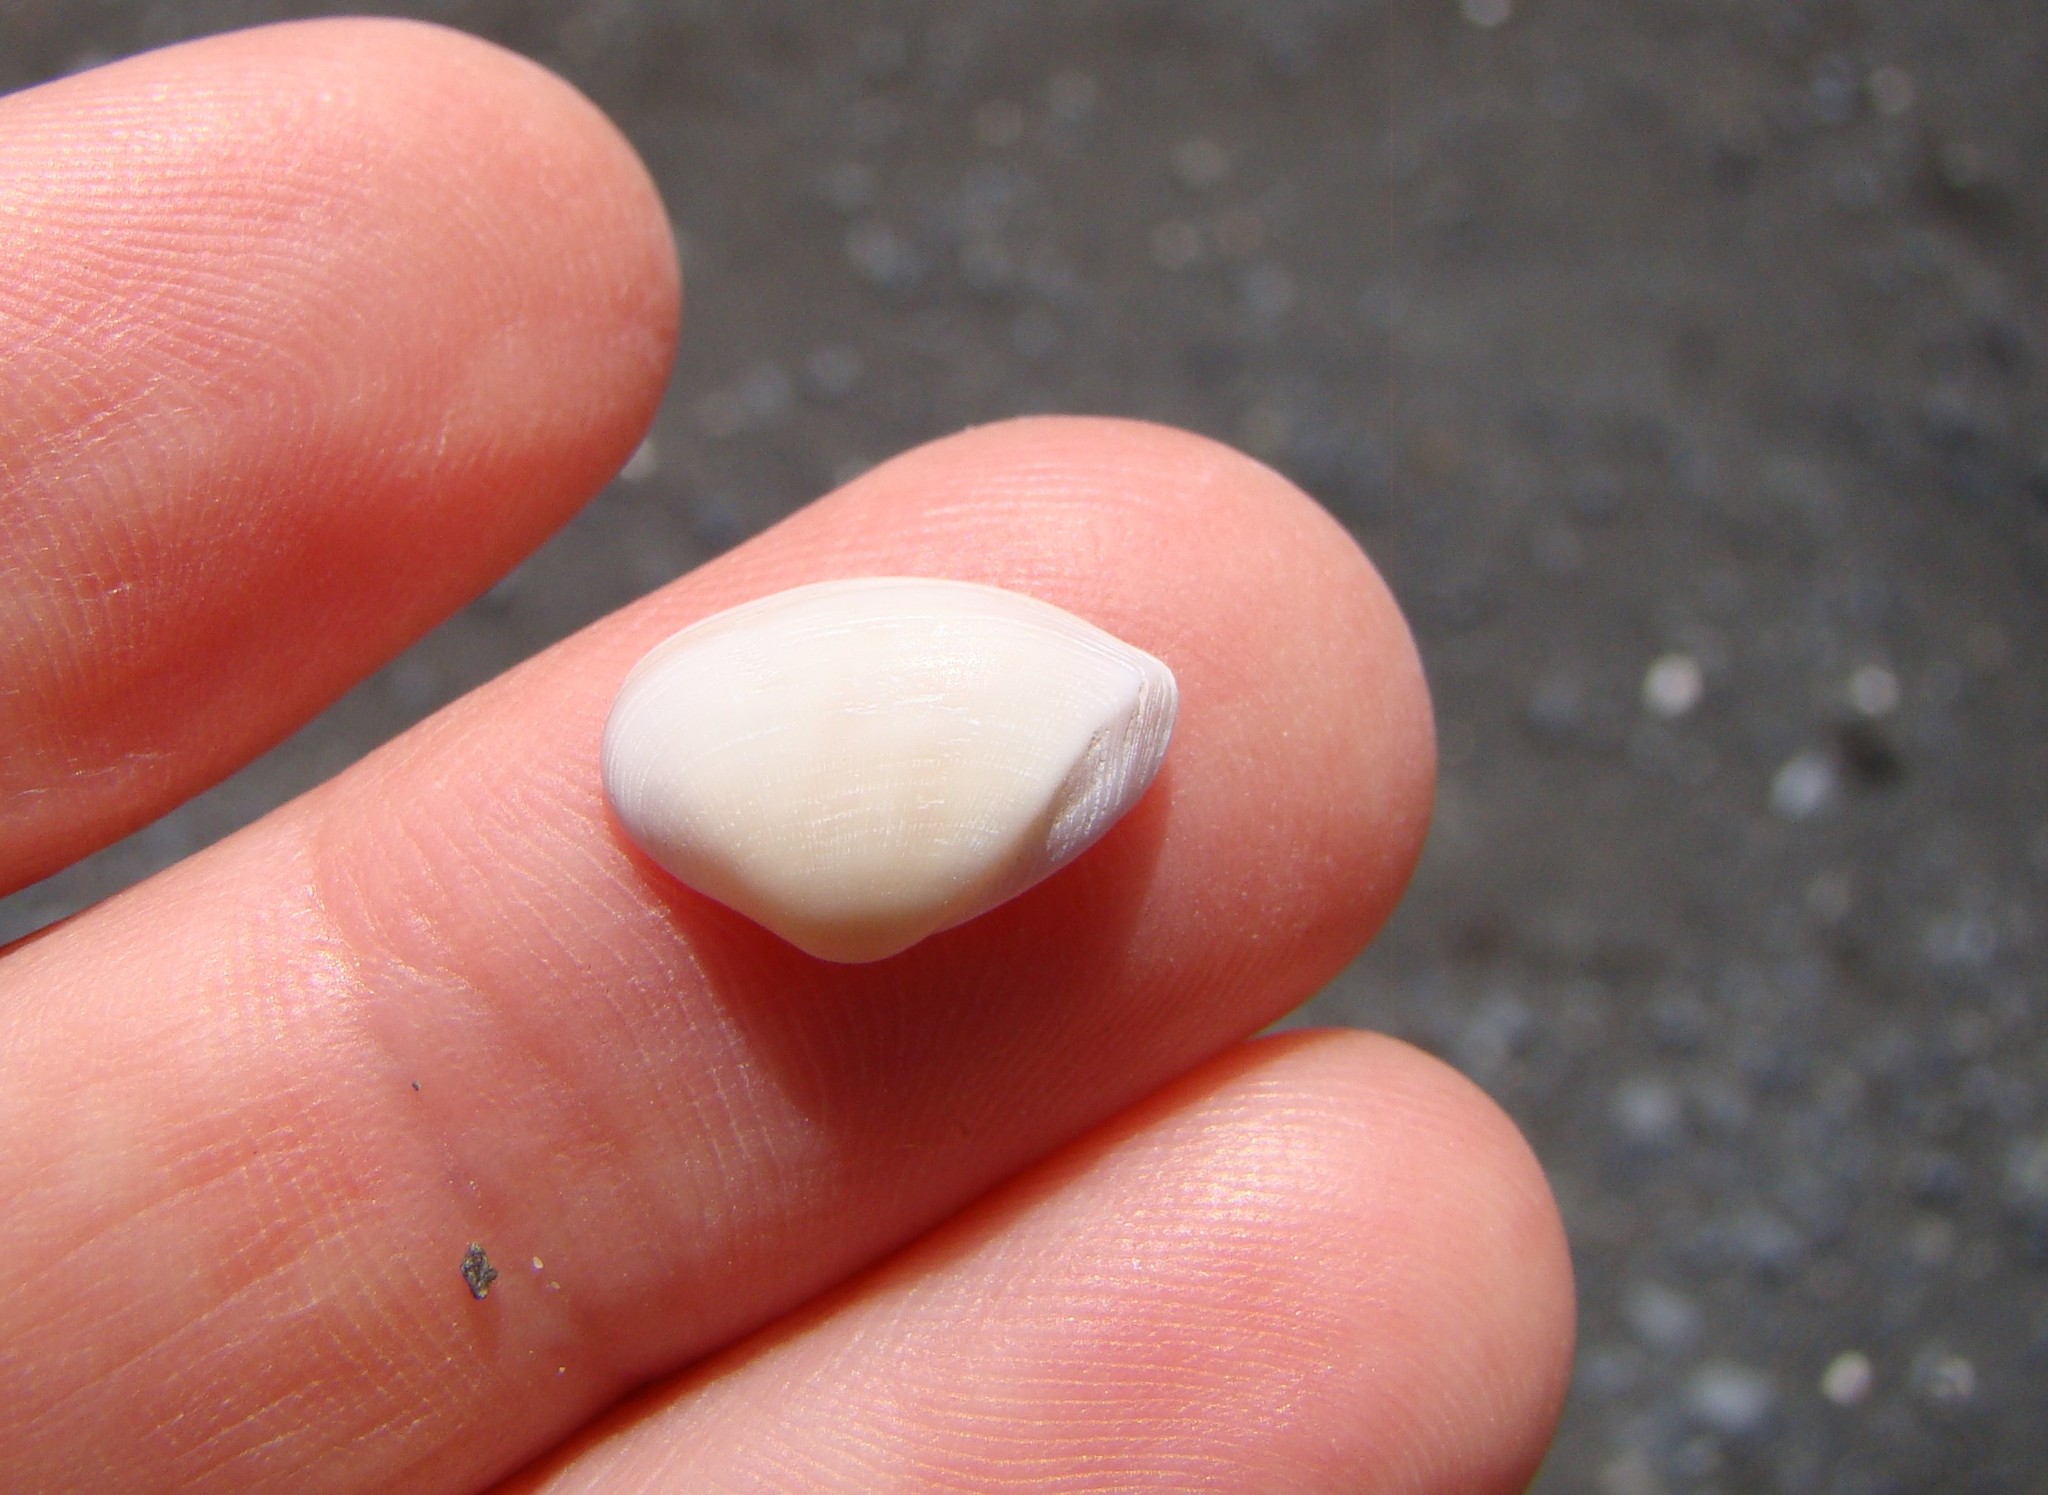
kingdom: Animalia
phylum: Mollusca
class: Bivalvia
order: Myida
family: Corbulidae
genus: Corbula
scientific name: Corbula zelandica
